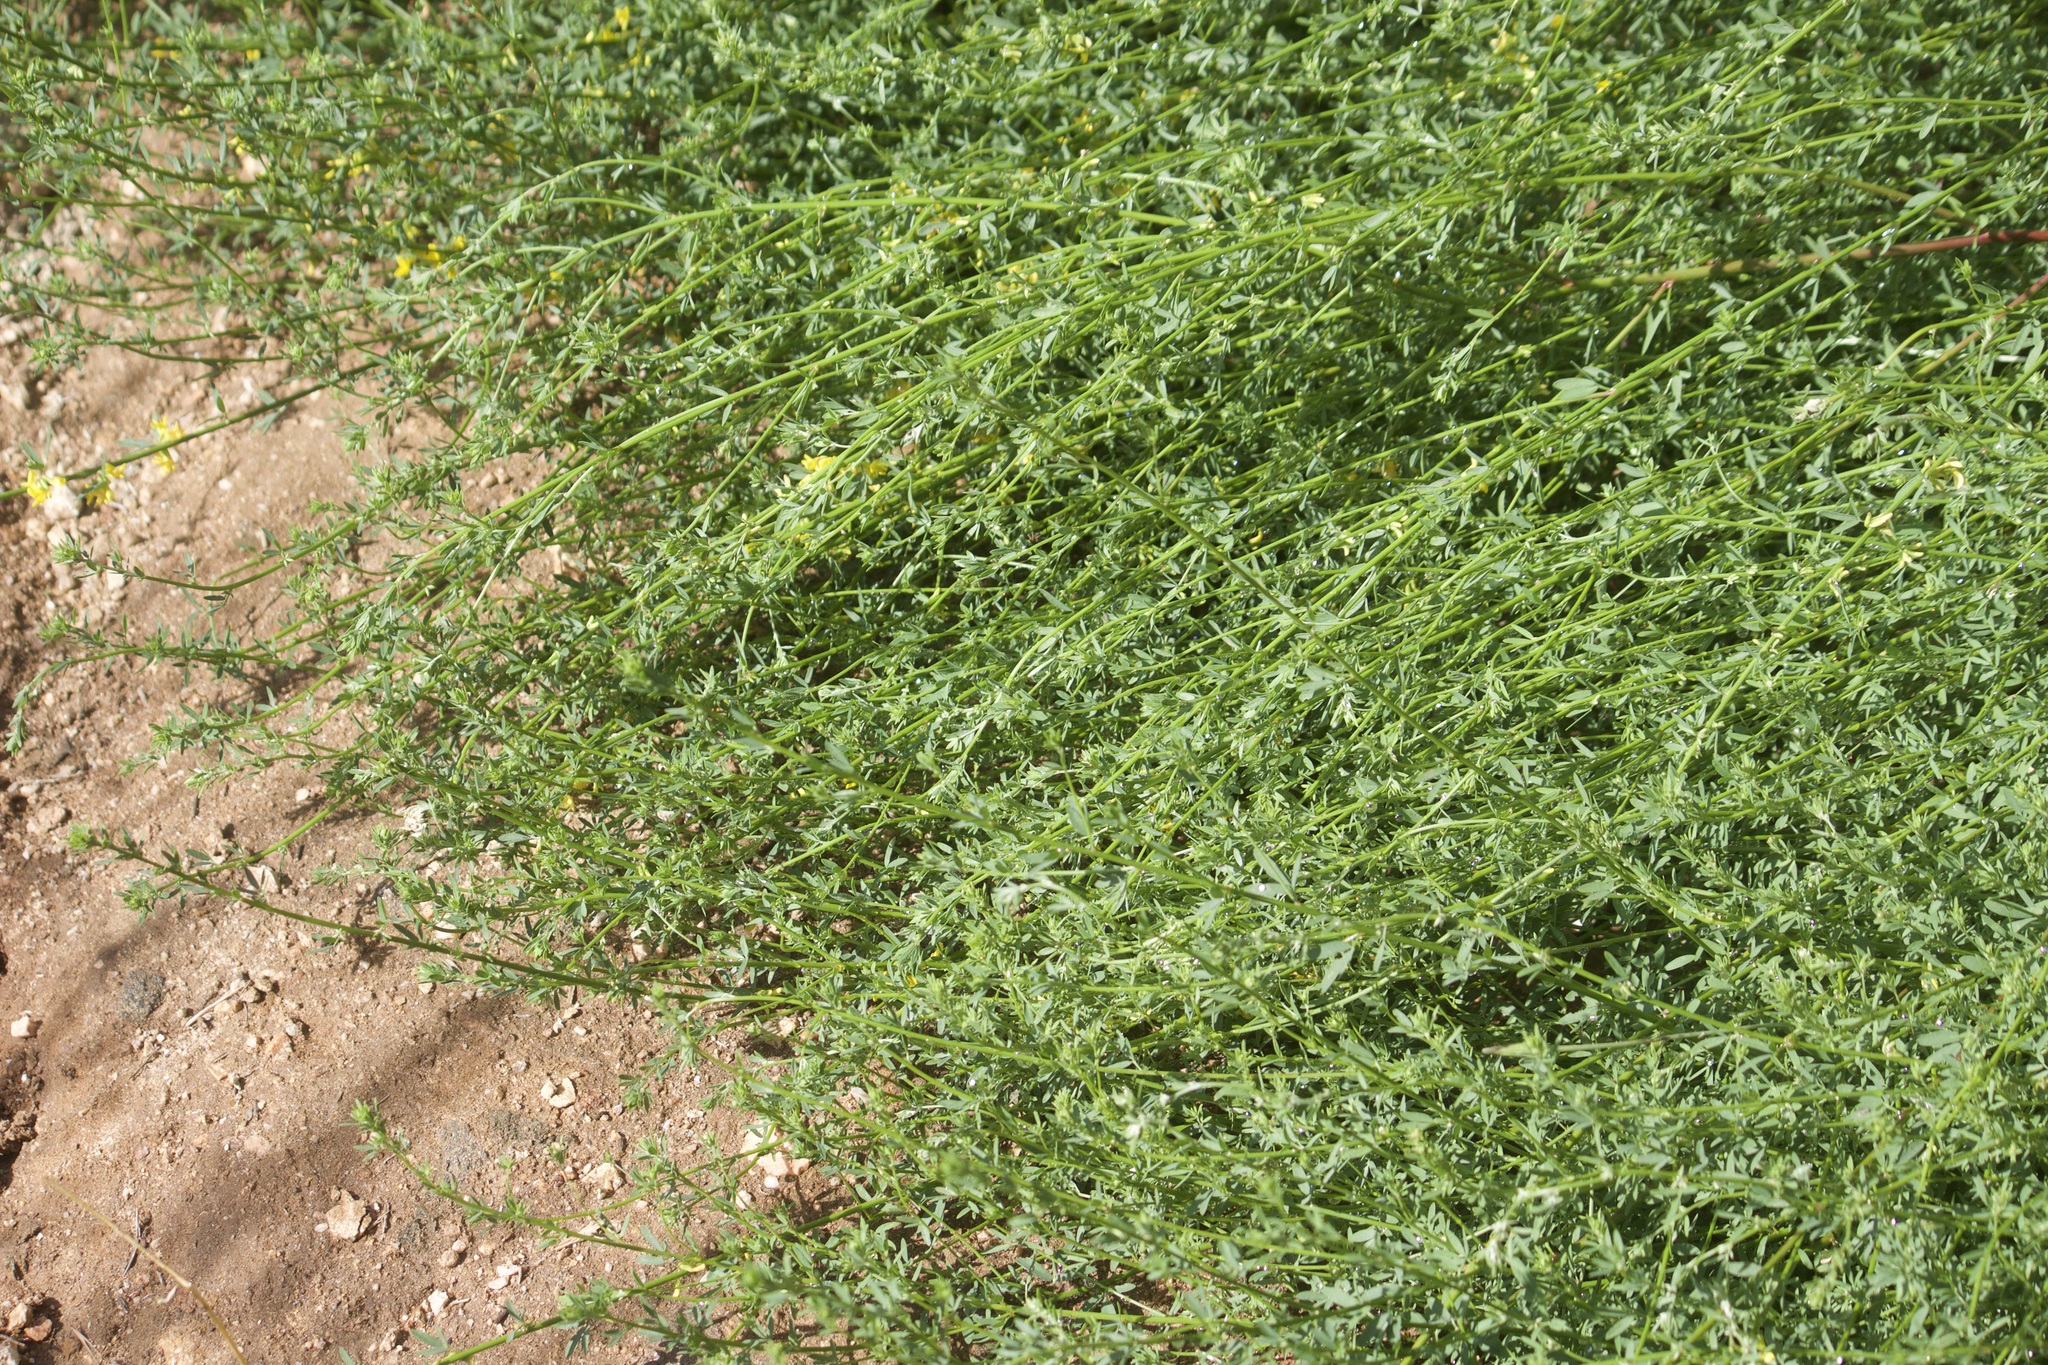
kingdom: Plantae
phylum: Tracheophyta
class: Magnoliopsida
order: Fabales
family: Fabaceae
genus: Acmispon
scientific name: Acmispon glaber
